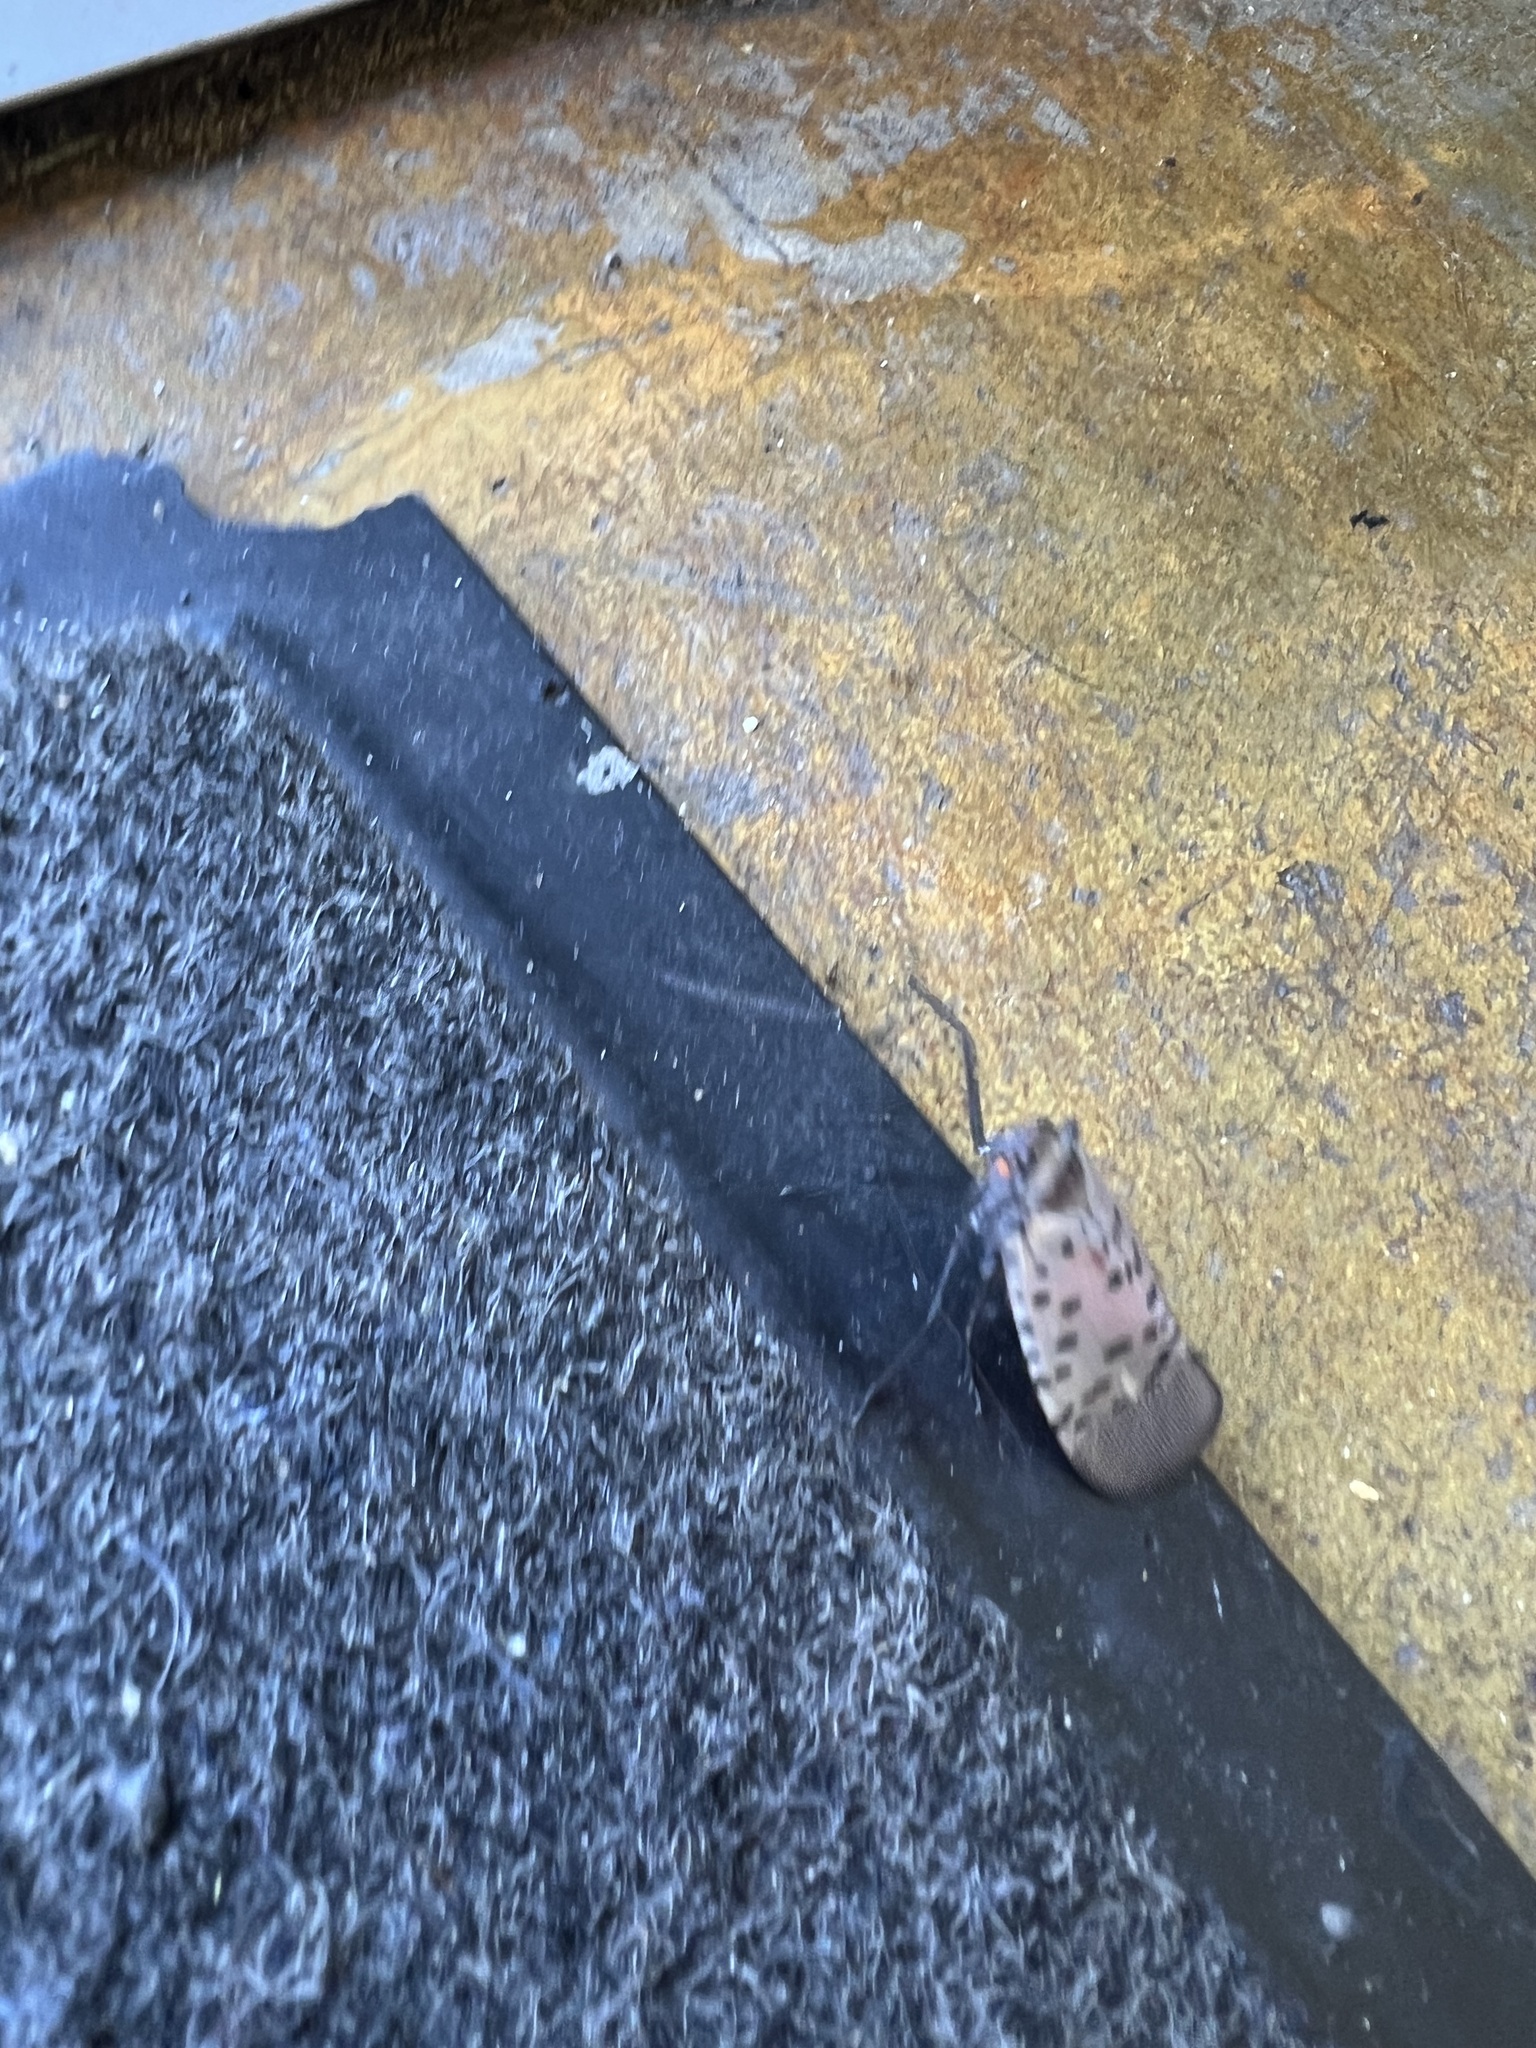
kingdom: Animalia
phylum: Arthropoda
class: Insecta
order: Hemiptera
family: Fulgoridae
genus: Lycorma
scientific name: Lycorma delicatula
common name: Spotted lanternfly
